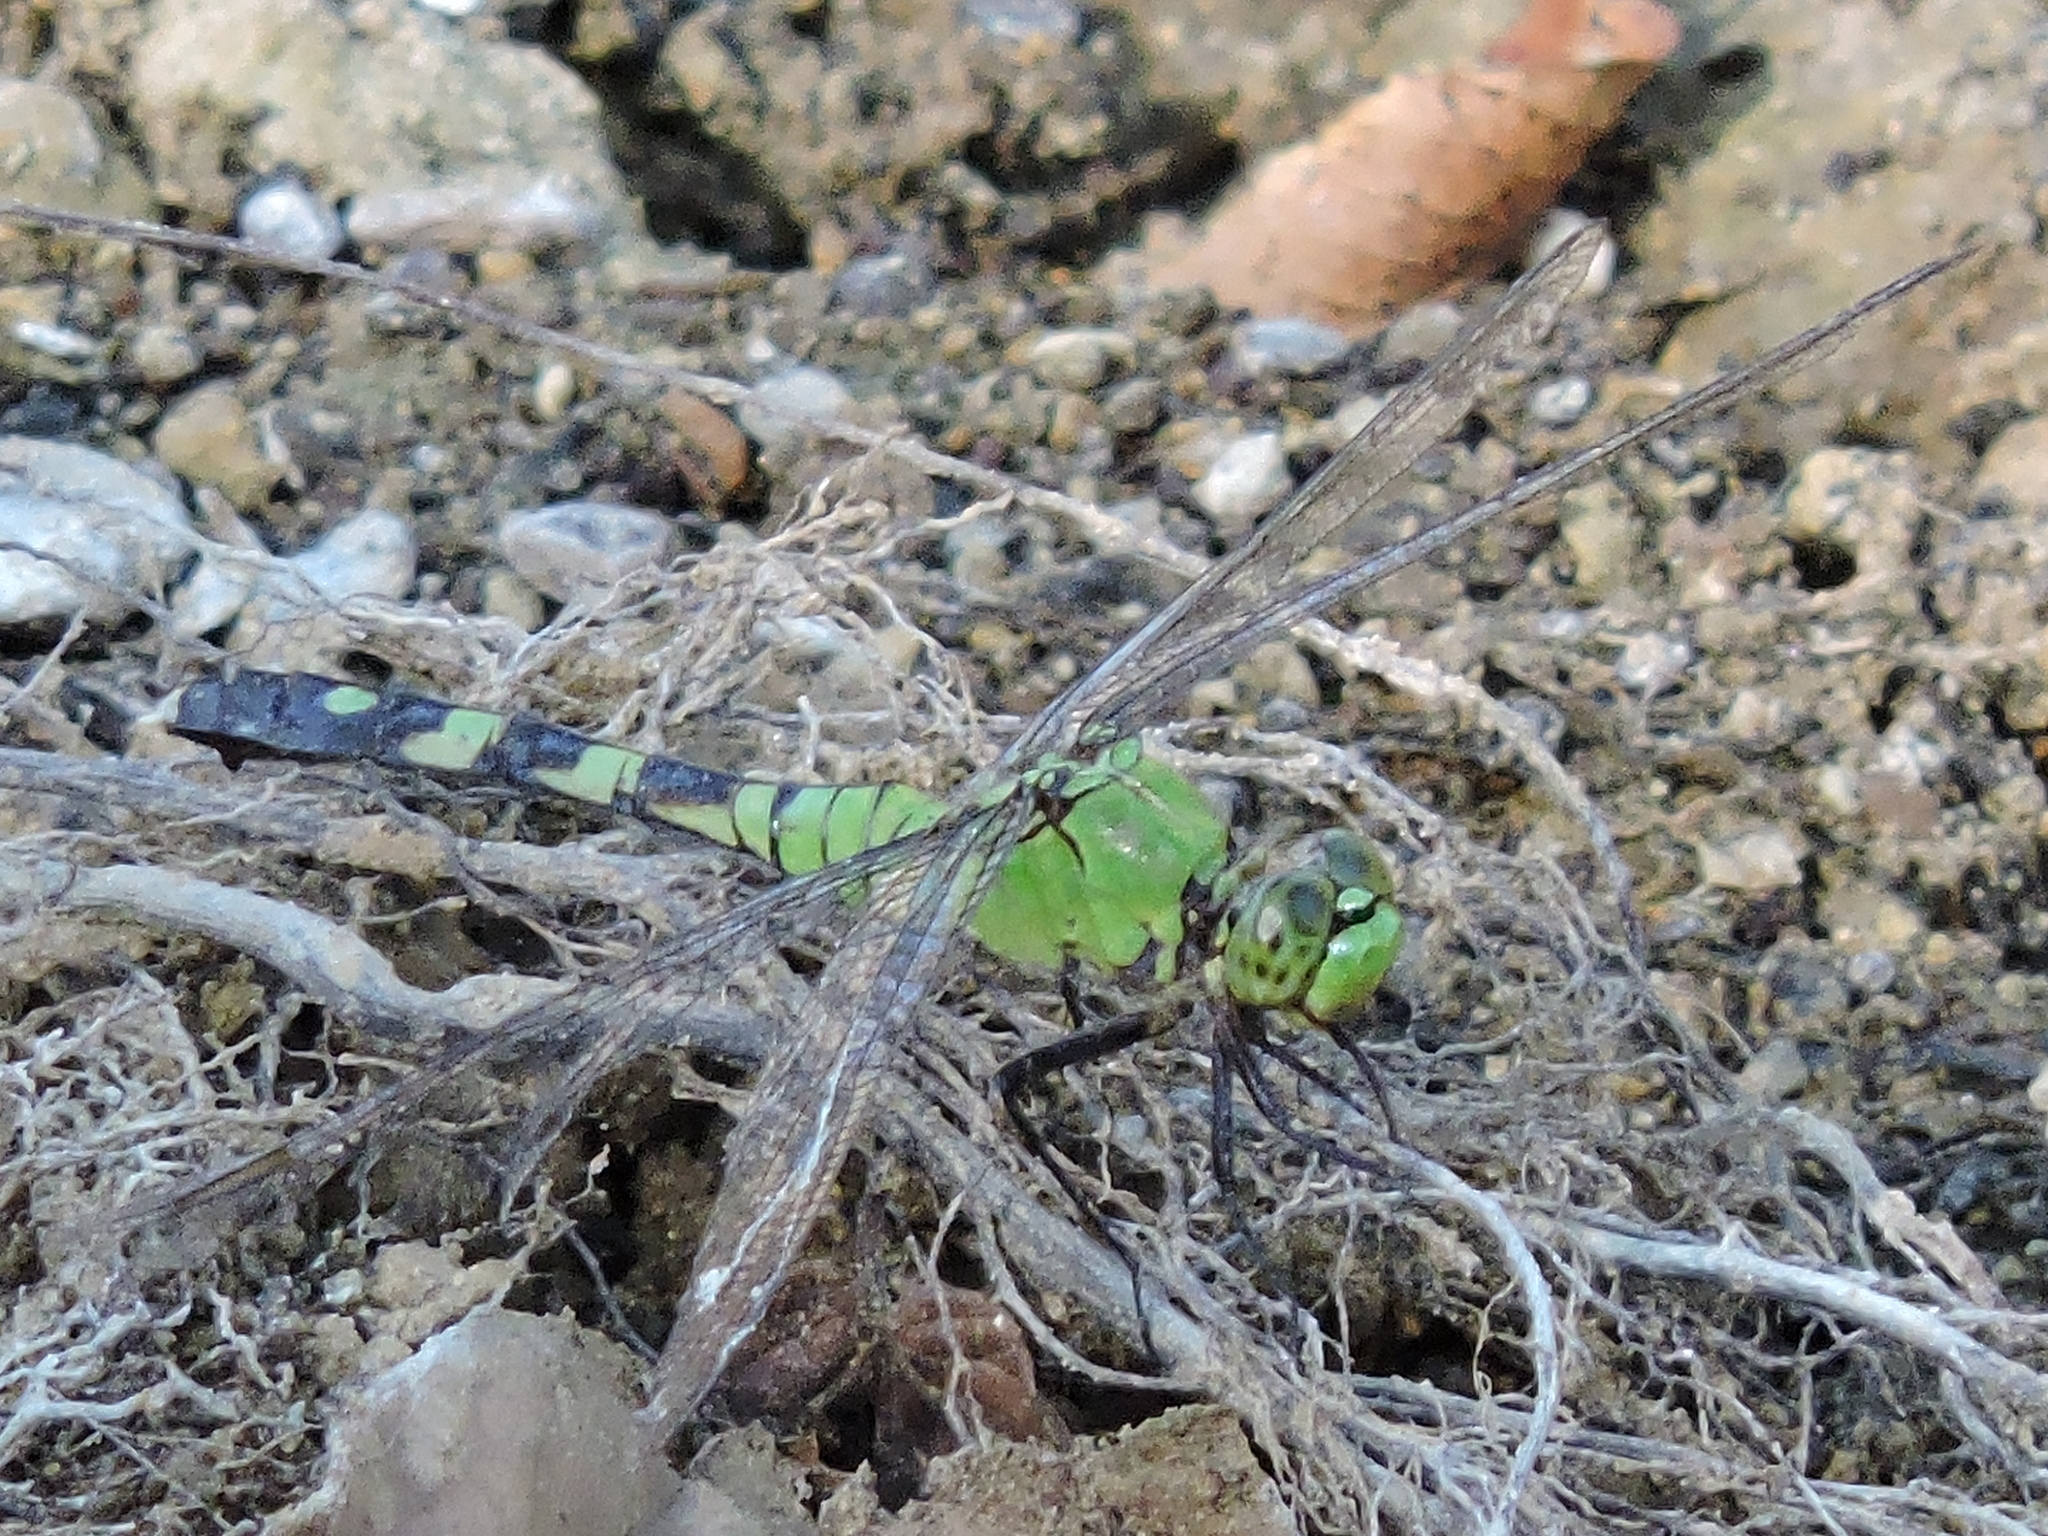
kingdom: Animalia
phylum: Arthropoda
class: Insecta
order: Odonata
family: Libellulidae
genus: Erythemis
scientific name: Erythemis simplicicollis
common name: Eastern pondhawk
